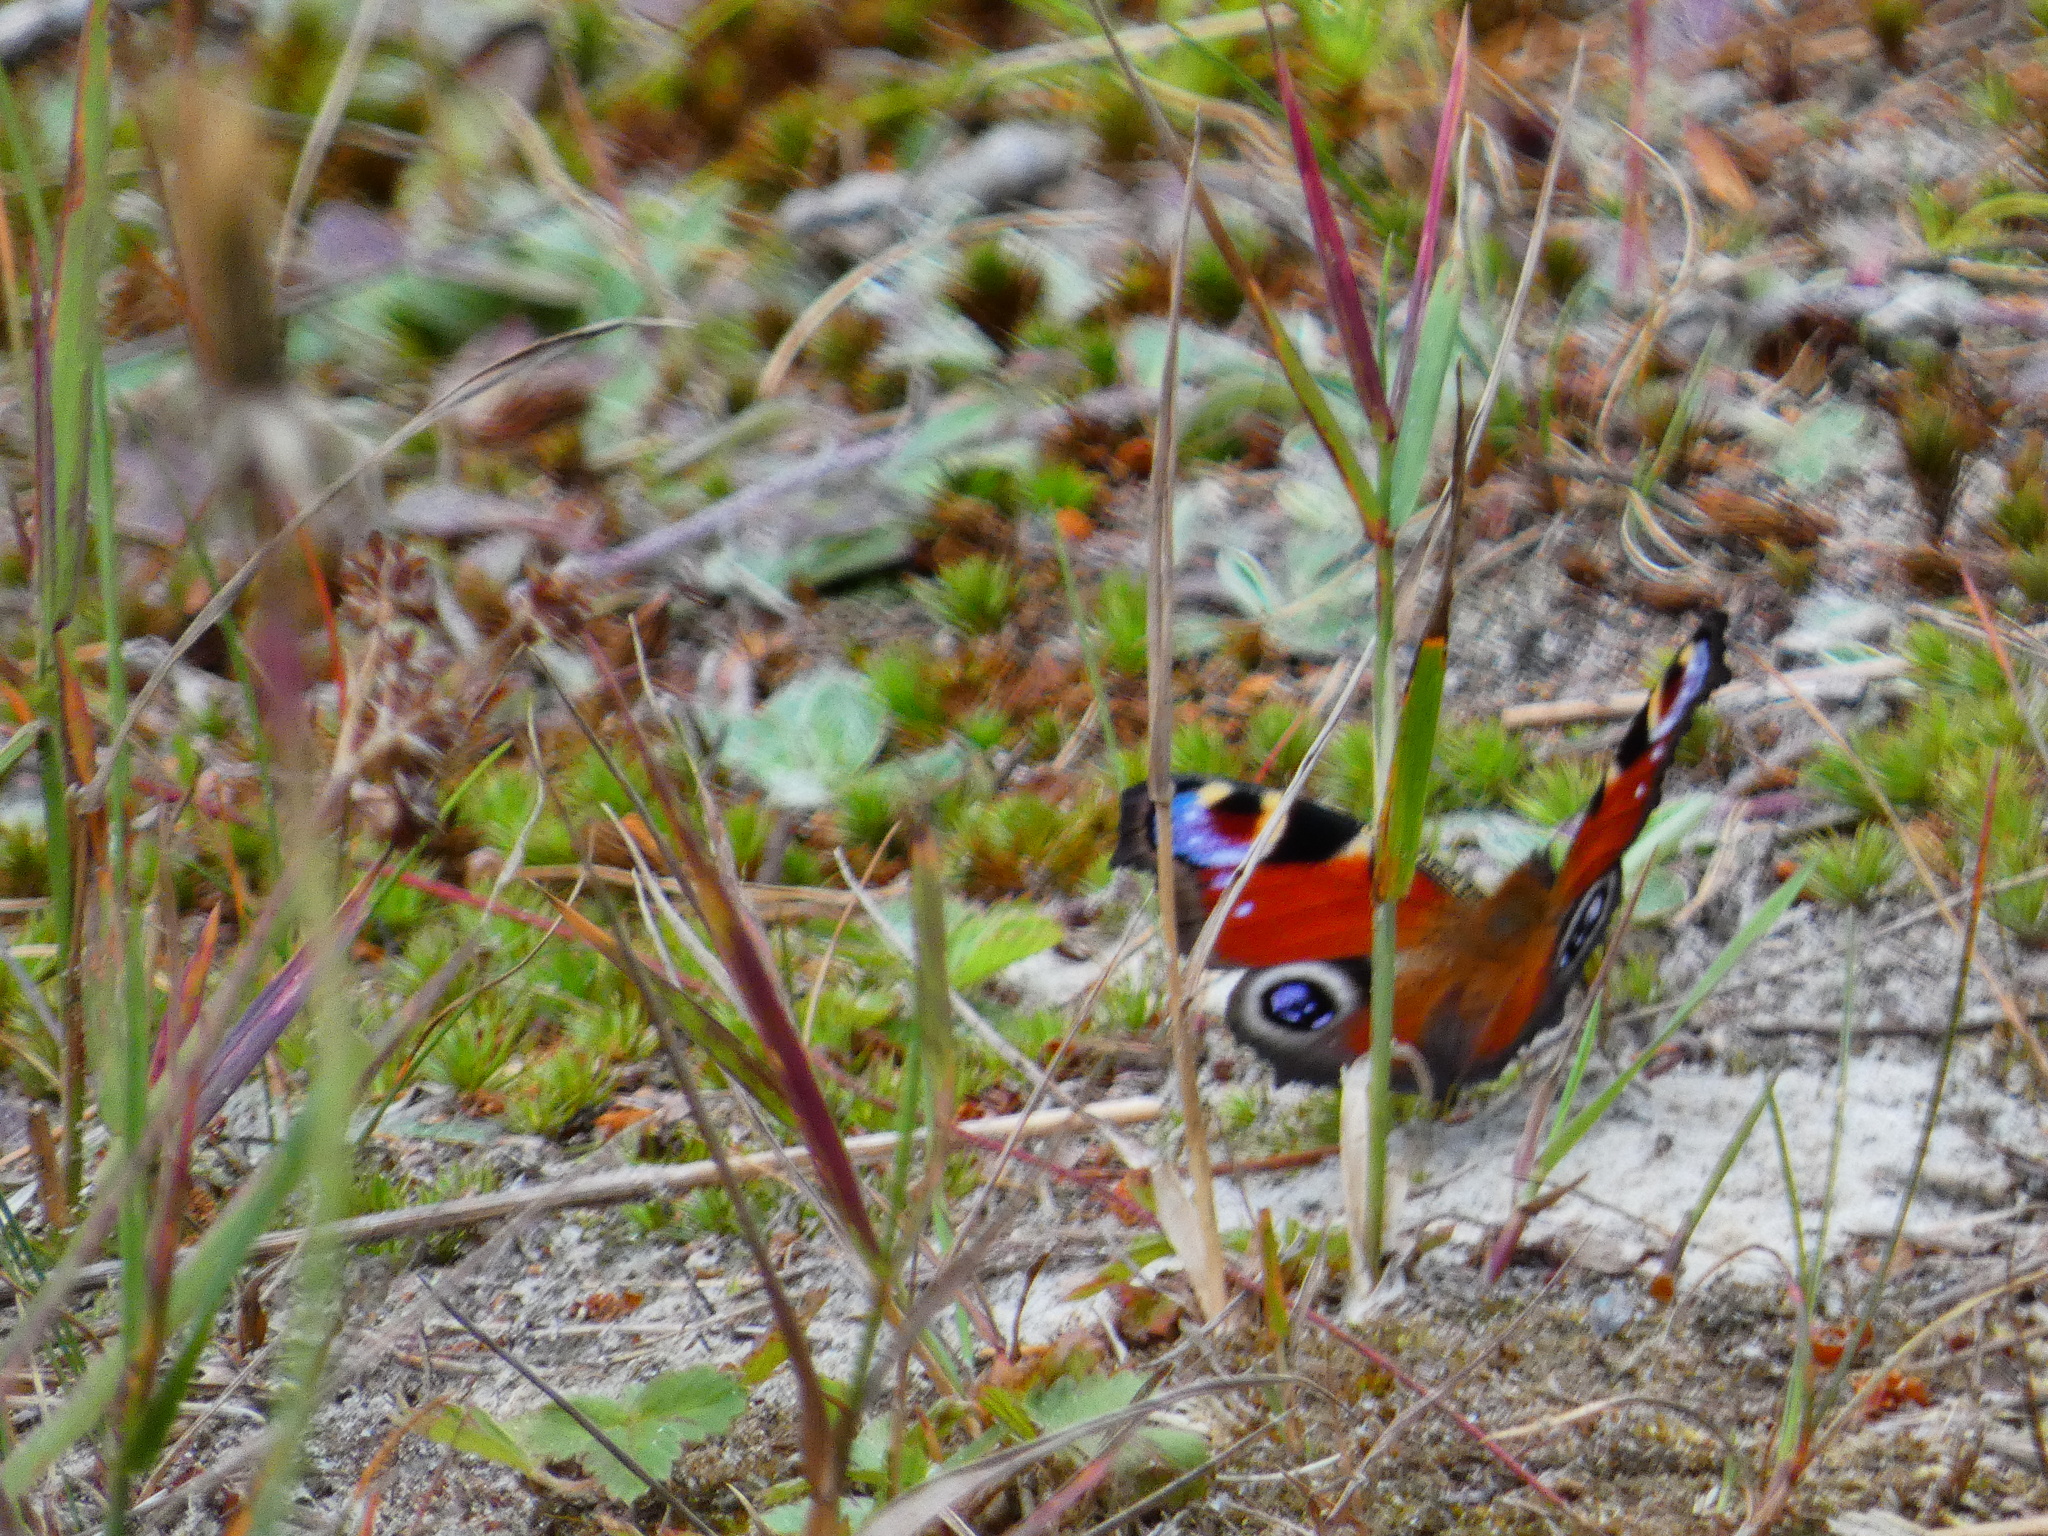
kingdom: Animalia
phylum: Arthropoda
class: Insecta
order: Lepidoptera
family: Nymphalidae
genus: Aglais
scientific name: Aglais io
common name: Peacock
